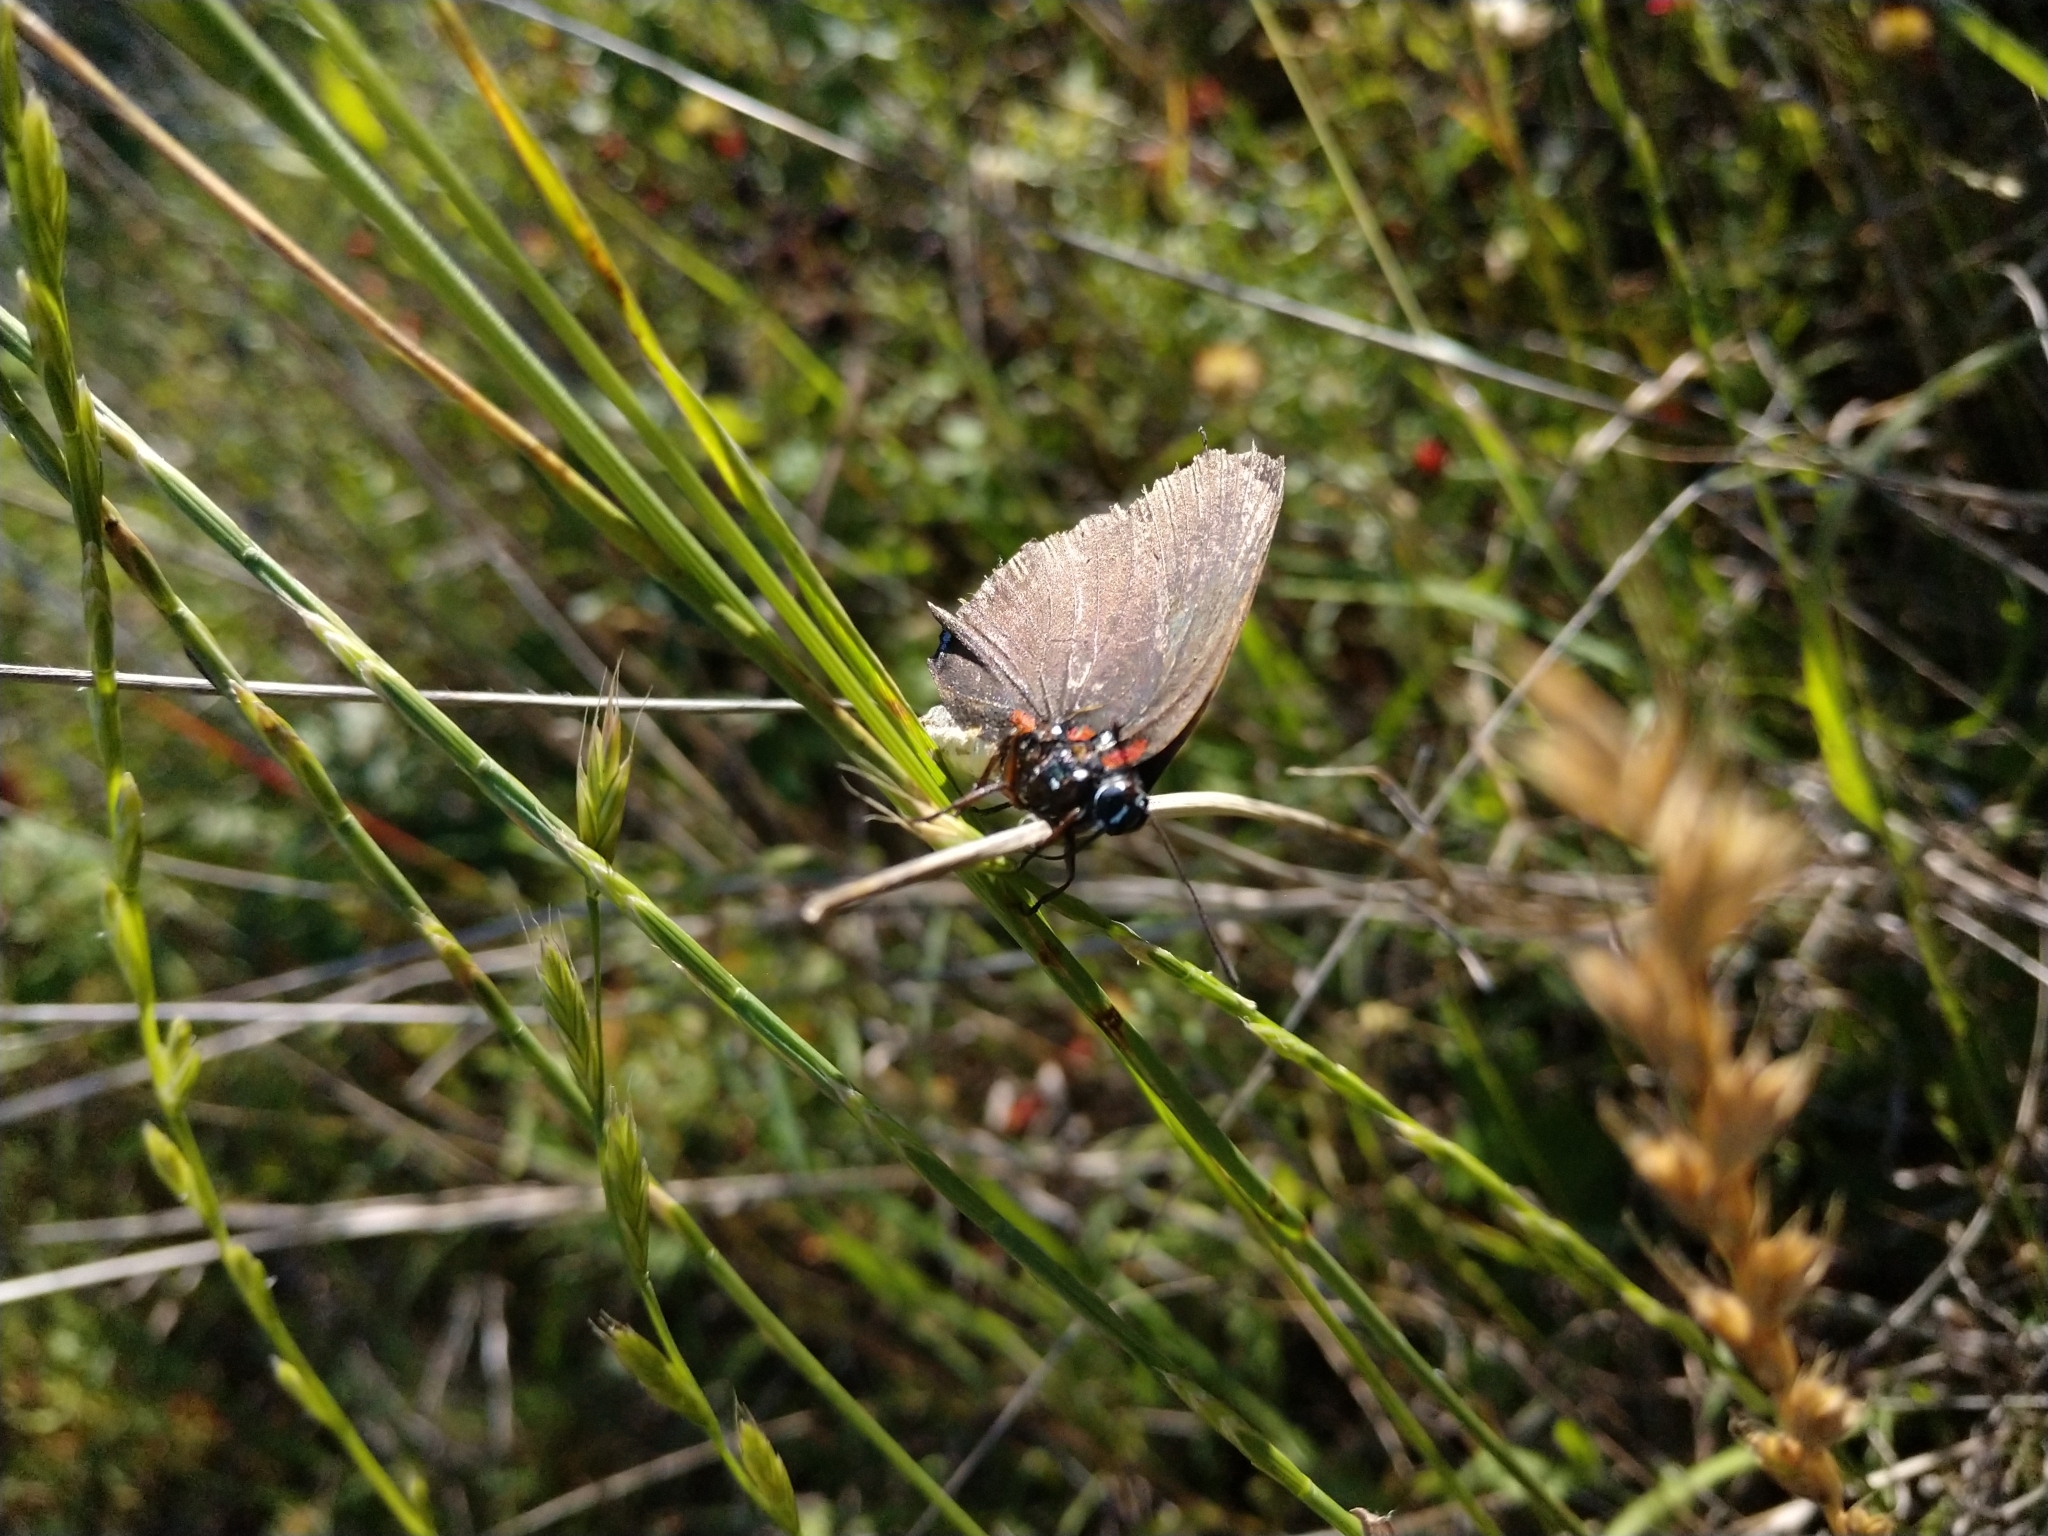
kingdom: Animalia
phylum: Arthropoda
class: Insecta
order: Lepidoptera
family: Lycaenidae
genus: Atlides
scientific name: Atlides halesus
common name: Great purple hairstreak
